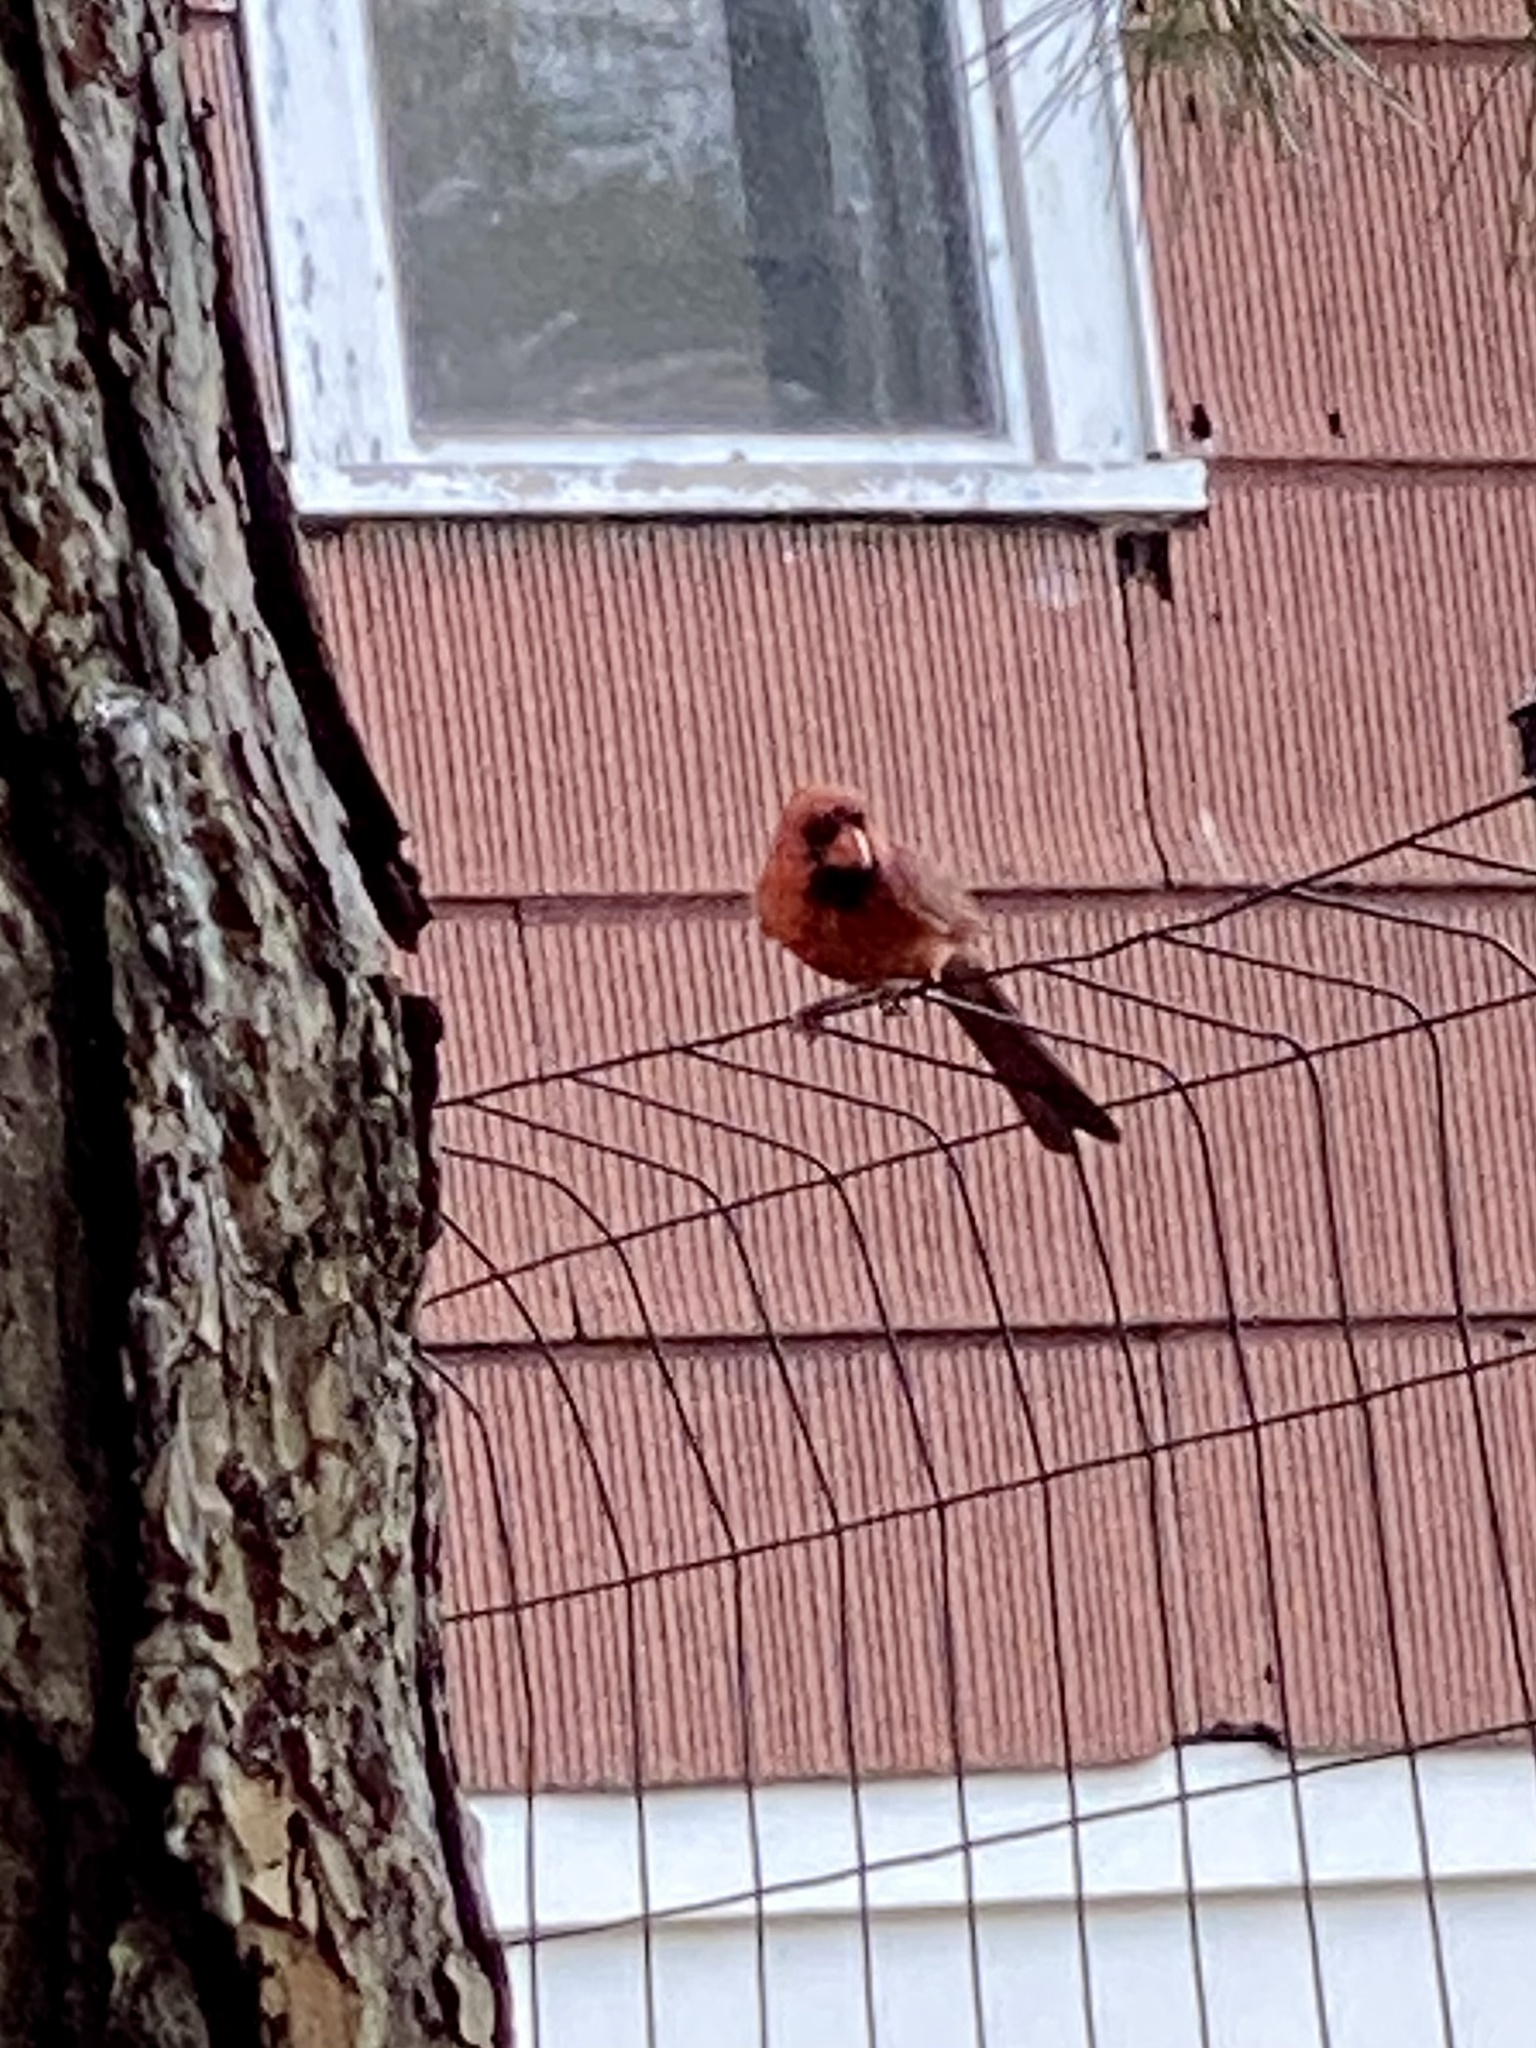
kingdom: Animalia
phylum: Chordata
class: Aves
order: Passeriformes
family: Cardinalidae
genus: Cardinalis
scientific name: Cardinalis cardinalis
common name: Northern cardinal
